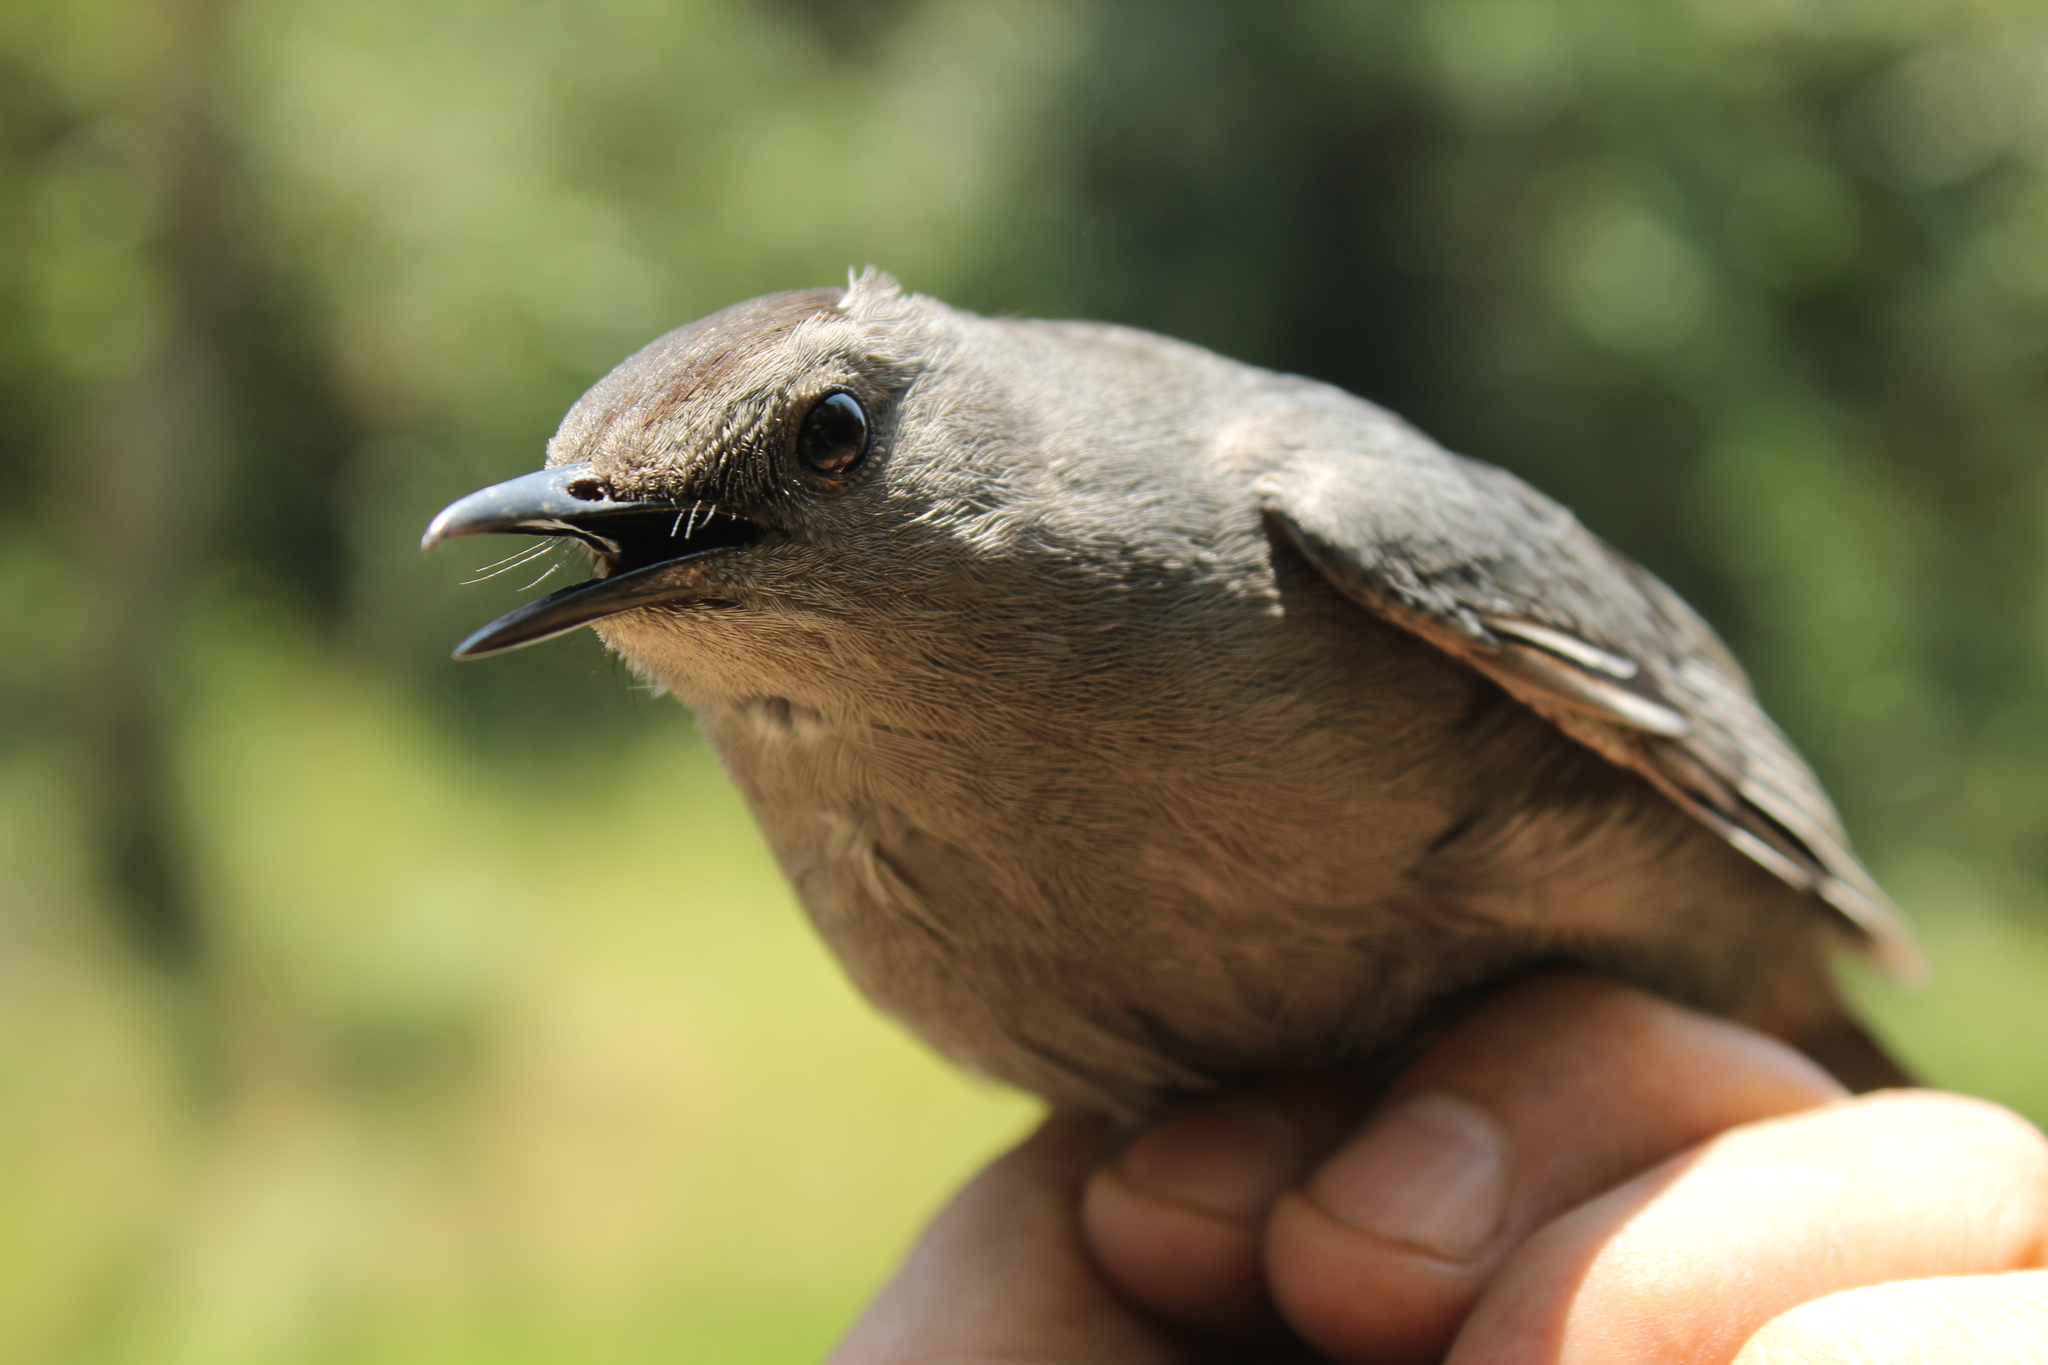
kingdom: Animalia
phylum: Chordata
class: Aves
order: Passeriformes
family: Mimidae
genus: Dumetella
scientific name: Dumetella carolinensis
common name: Gray catbird
